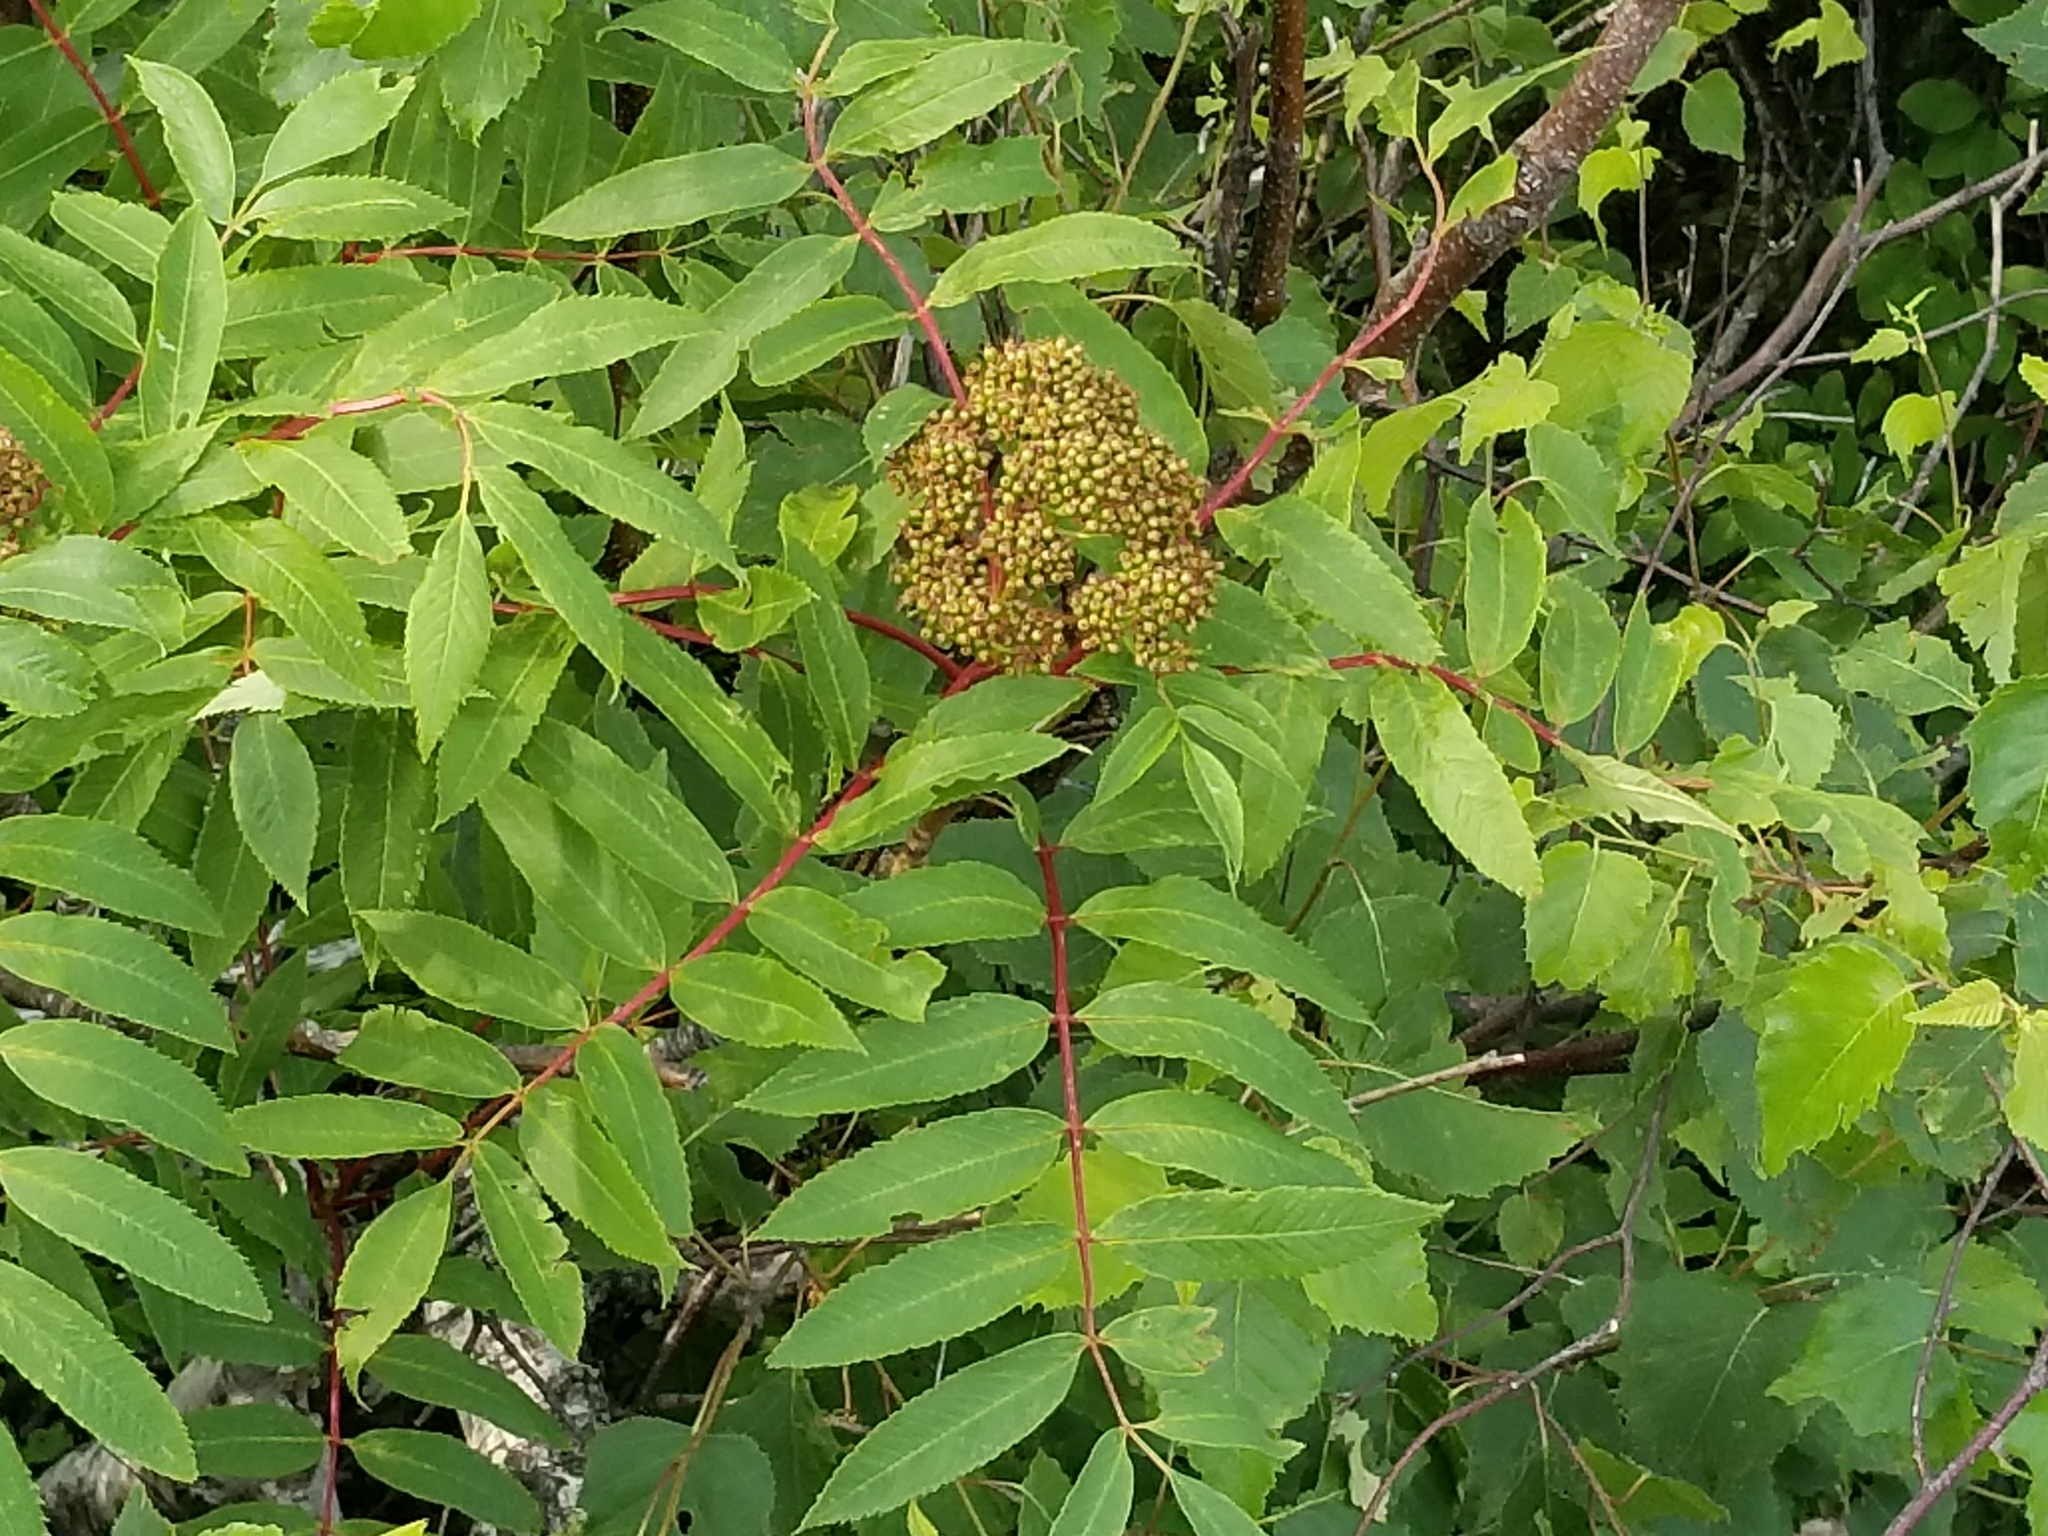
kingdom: Plantae
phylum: Tracheophyta
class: Magnoliopsida
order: Rosales
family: Rosaceae
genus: Sorbus
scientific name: Sorbus americana
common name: American mountain-ash
